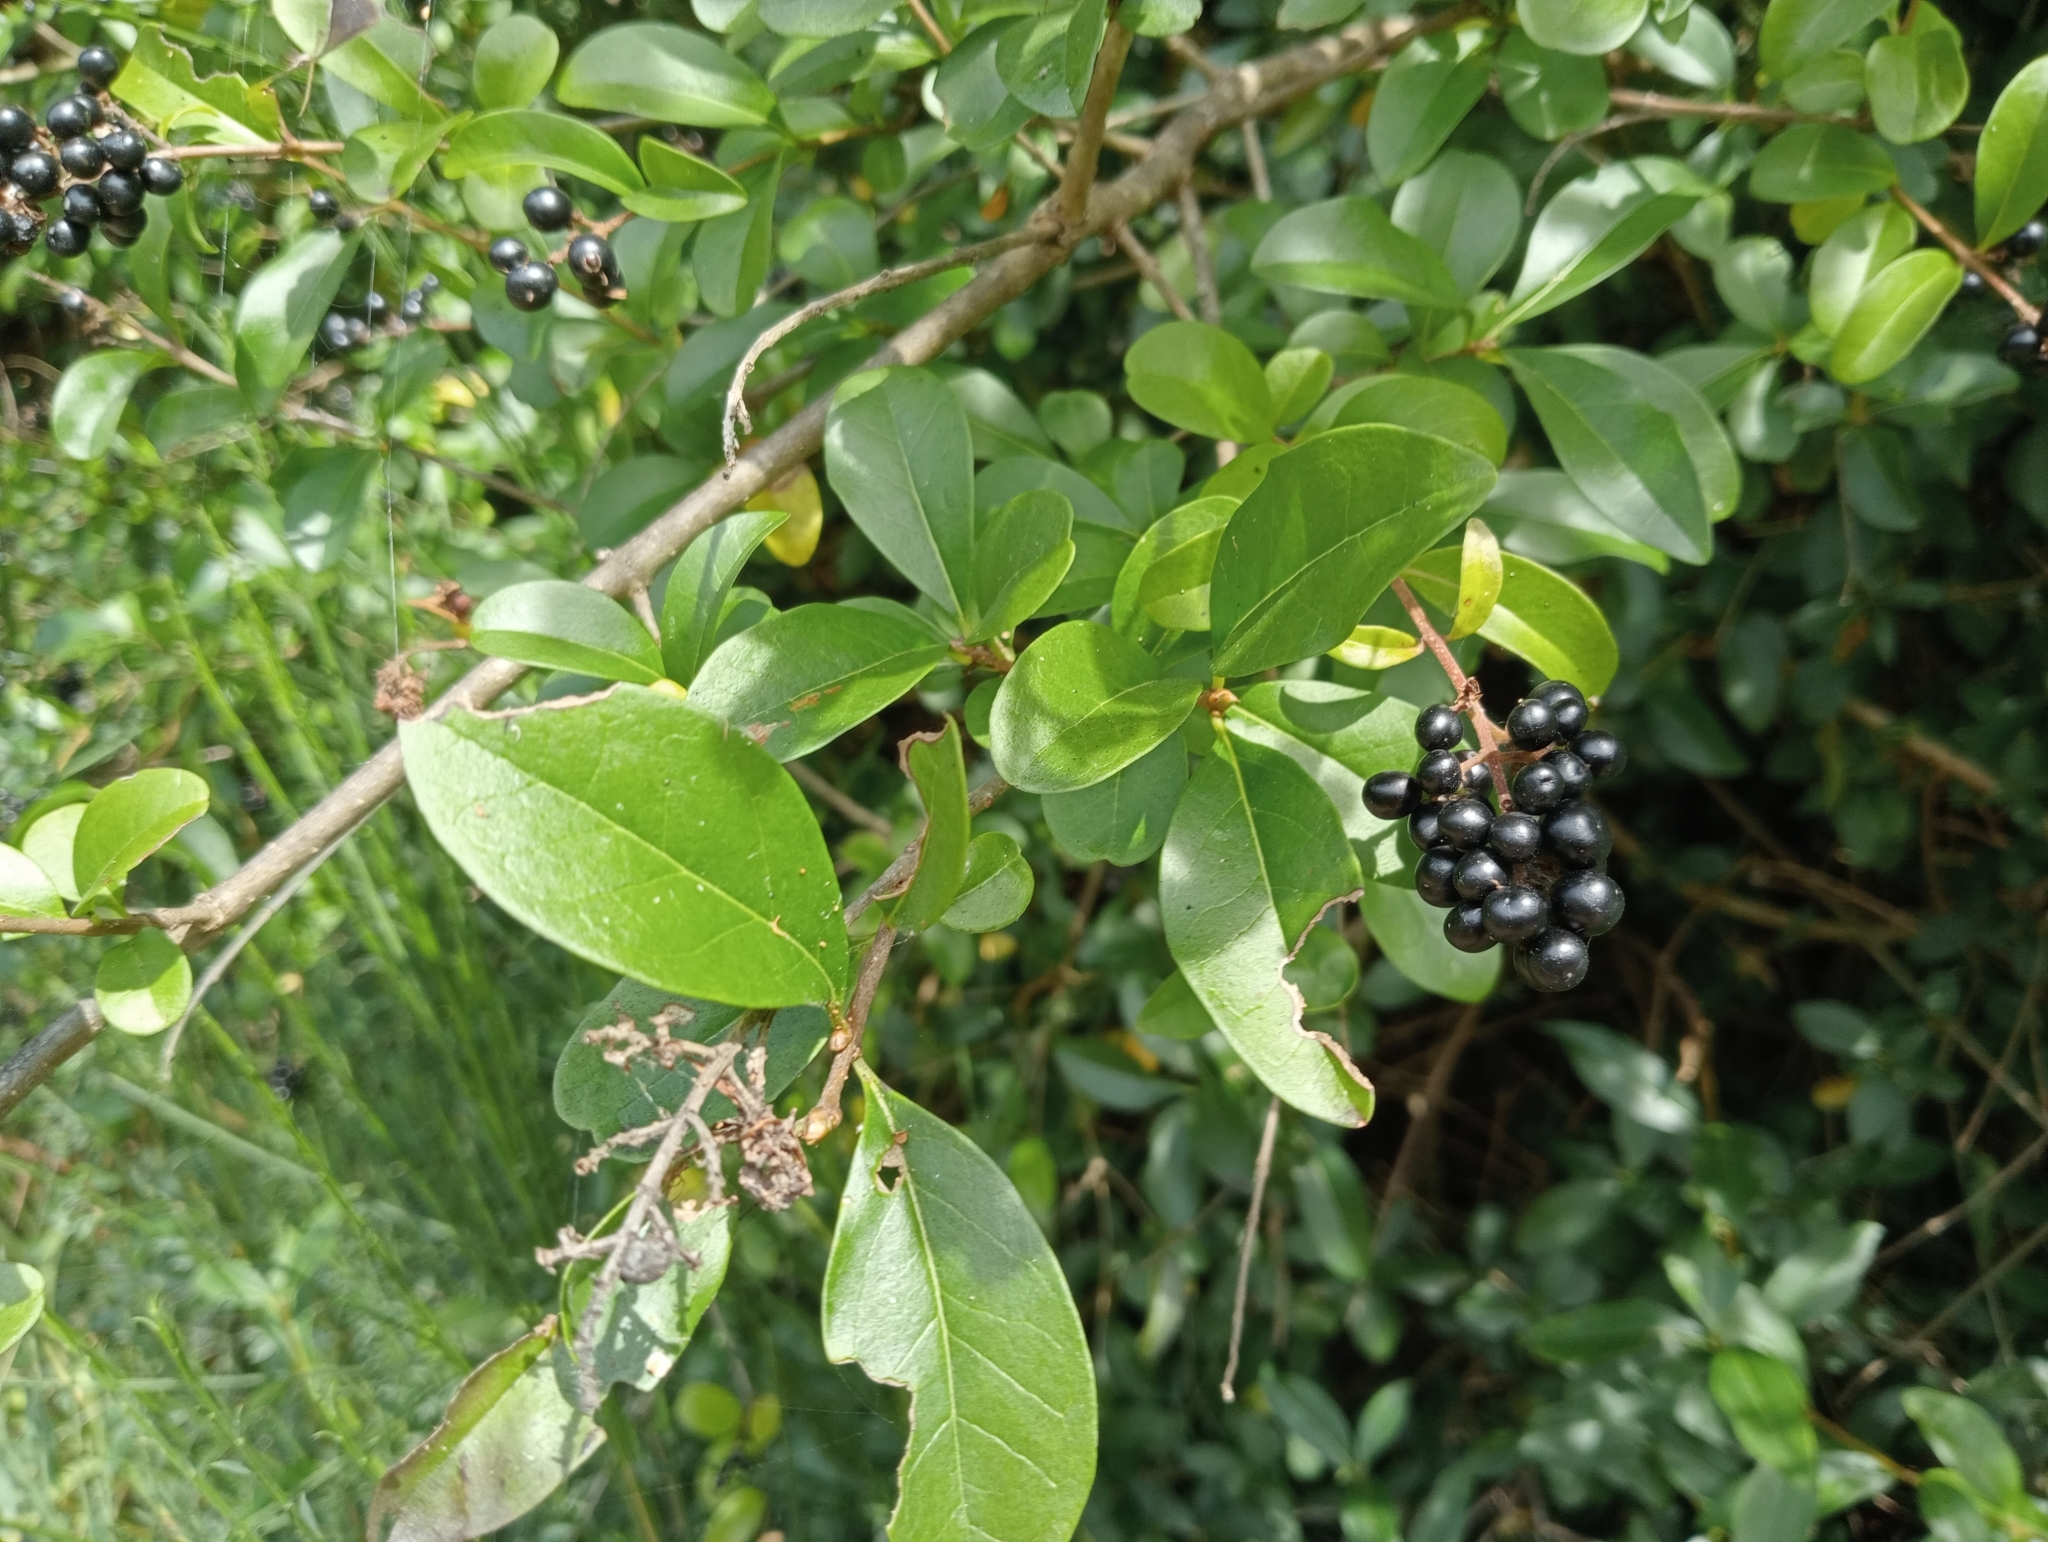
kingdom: Plantae
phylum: Tracheophyta
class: Magnoliopsida
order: Lamiales
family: Oleaceae
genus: Ligustrum
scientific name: Ligustrum vulgare
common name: Wild privet
